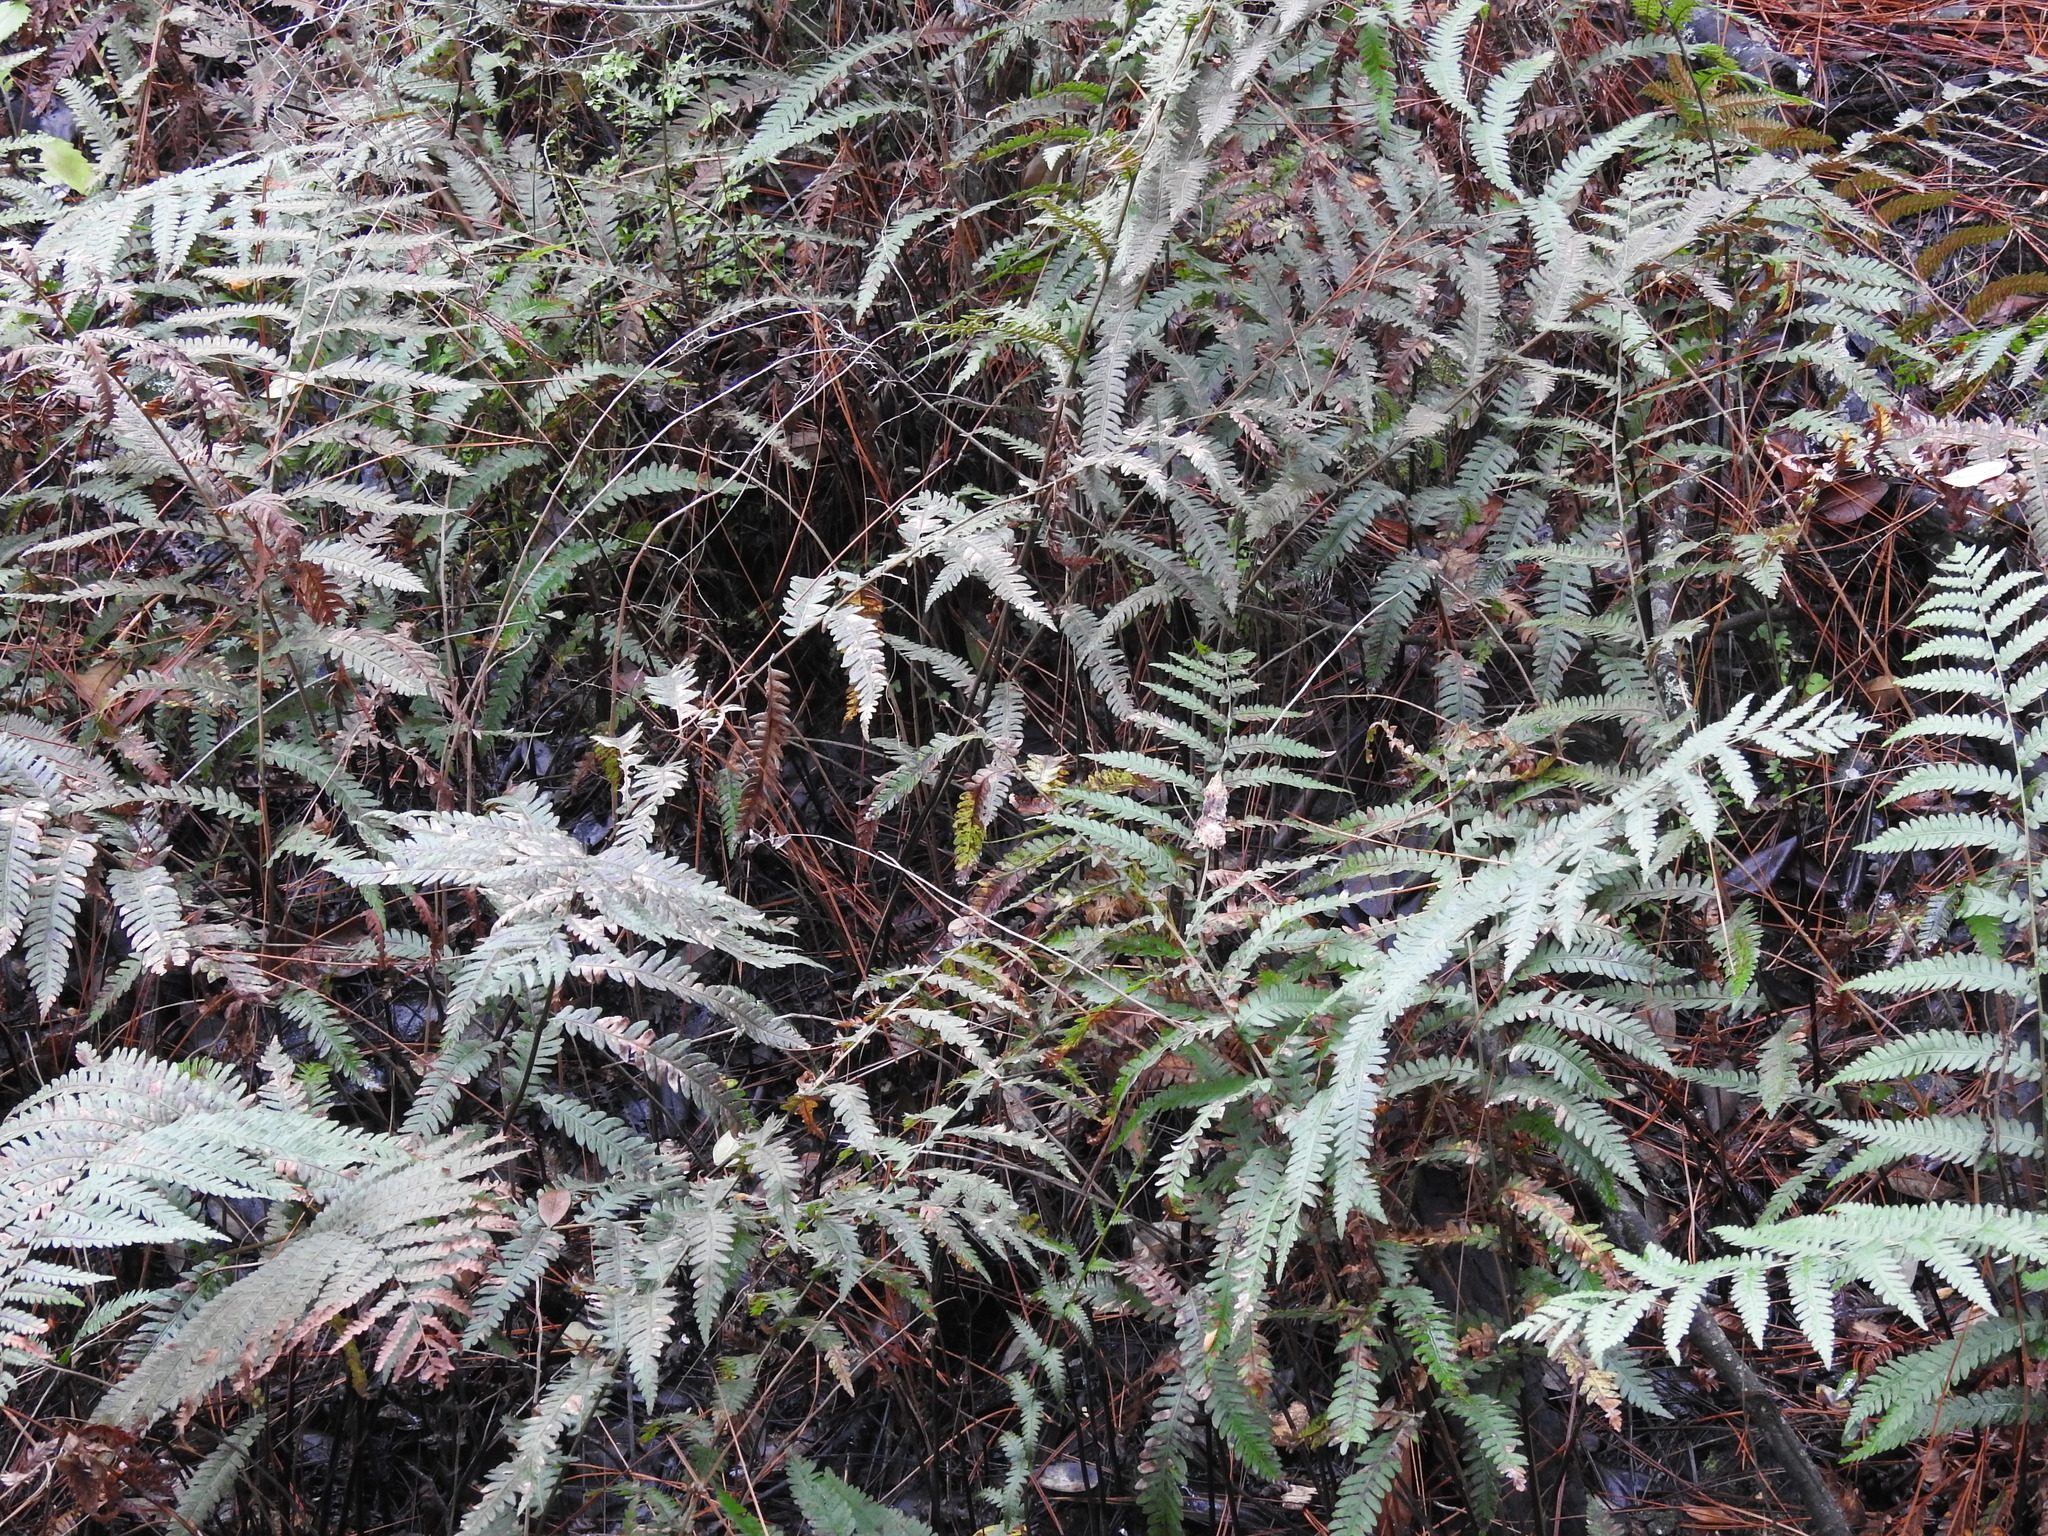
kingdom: Plantae
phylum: Tracheophyta
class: Polypodiopsida
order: Polypodiales
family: Blechnaceae
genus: Anchistea
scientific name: Anchistea virginica
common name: Virginia chain fern
